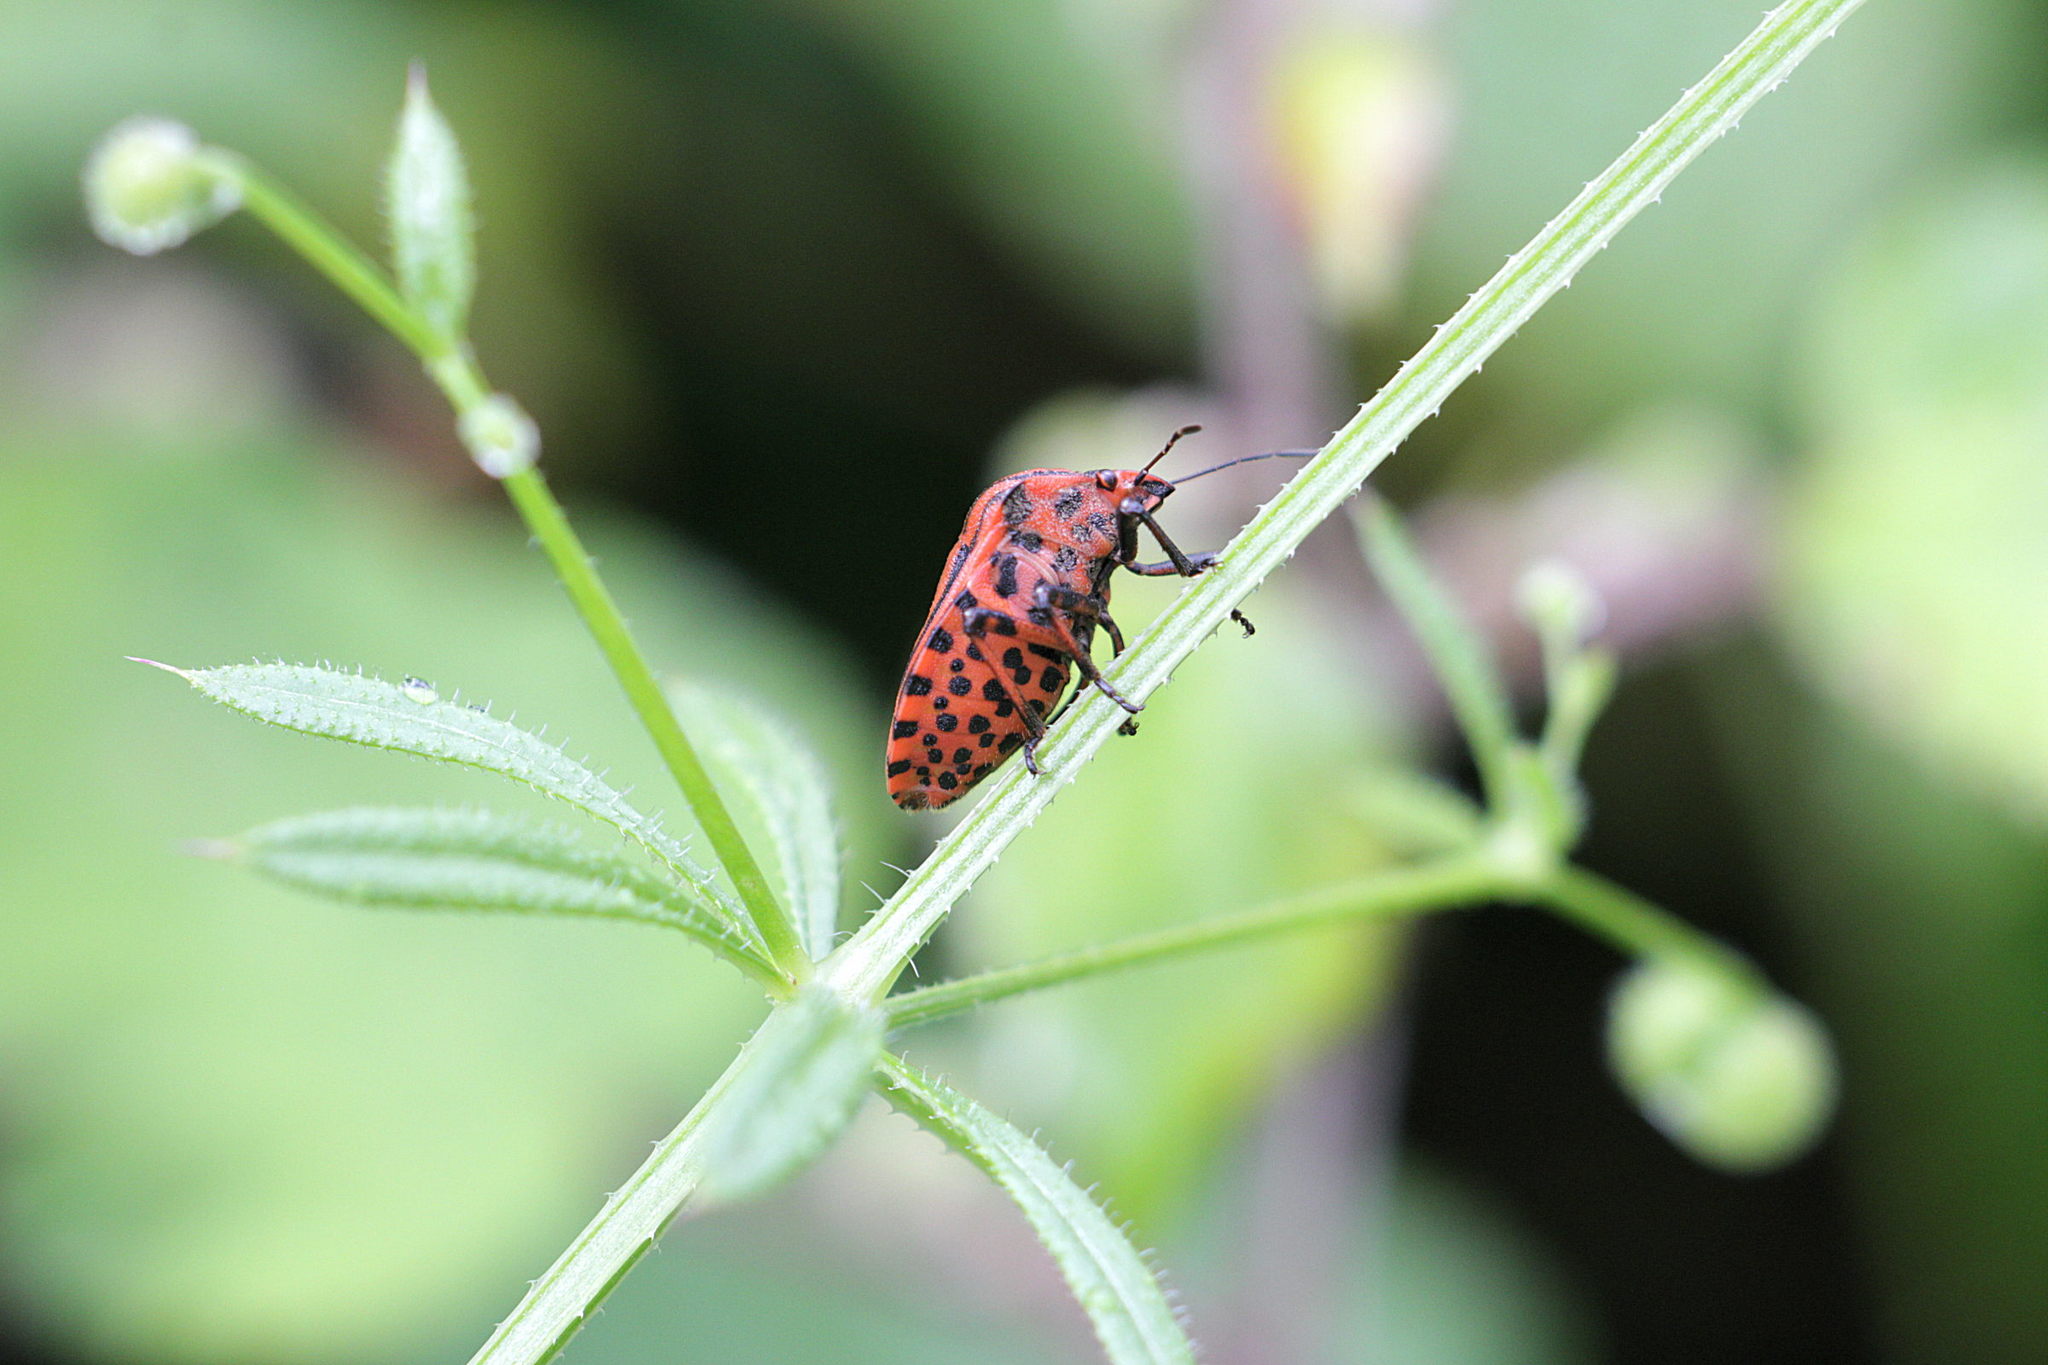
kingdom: Animalia
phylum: Arthropoda
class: Insecta
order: Hemiptera
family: Pentatomidae
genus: Graphosoma
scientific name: Graphosoma italicum
